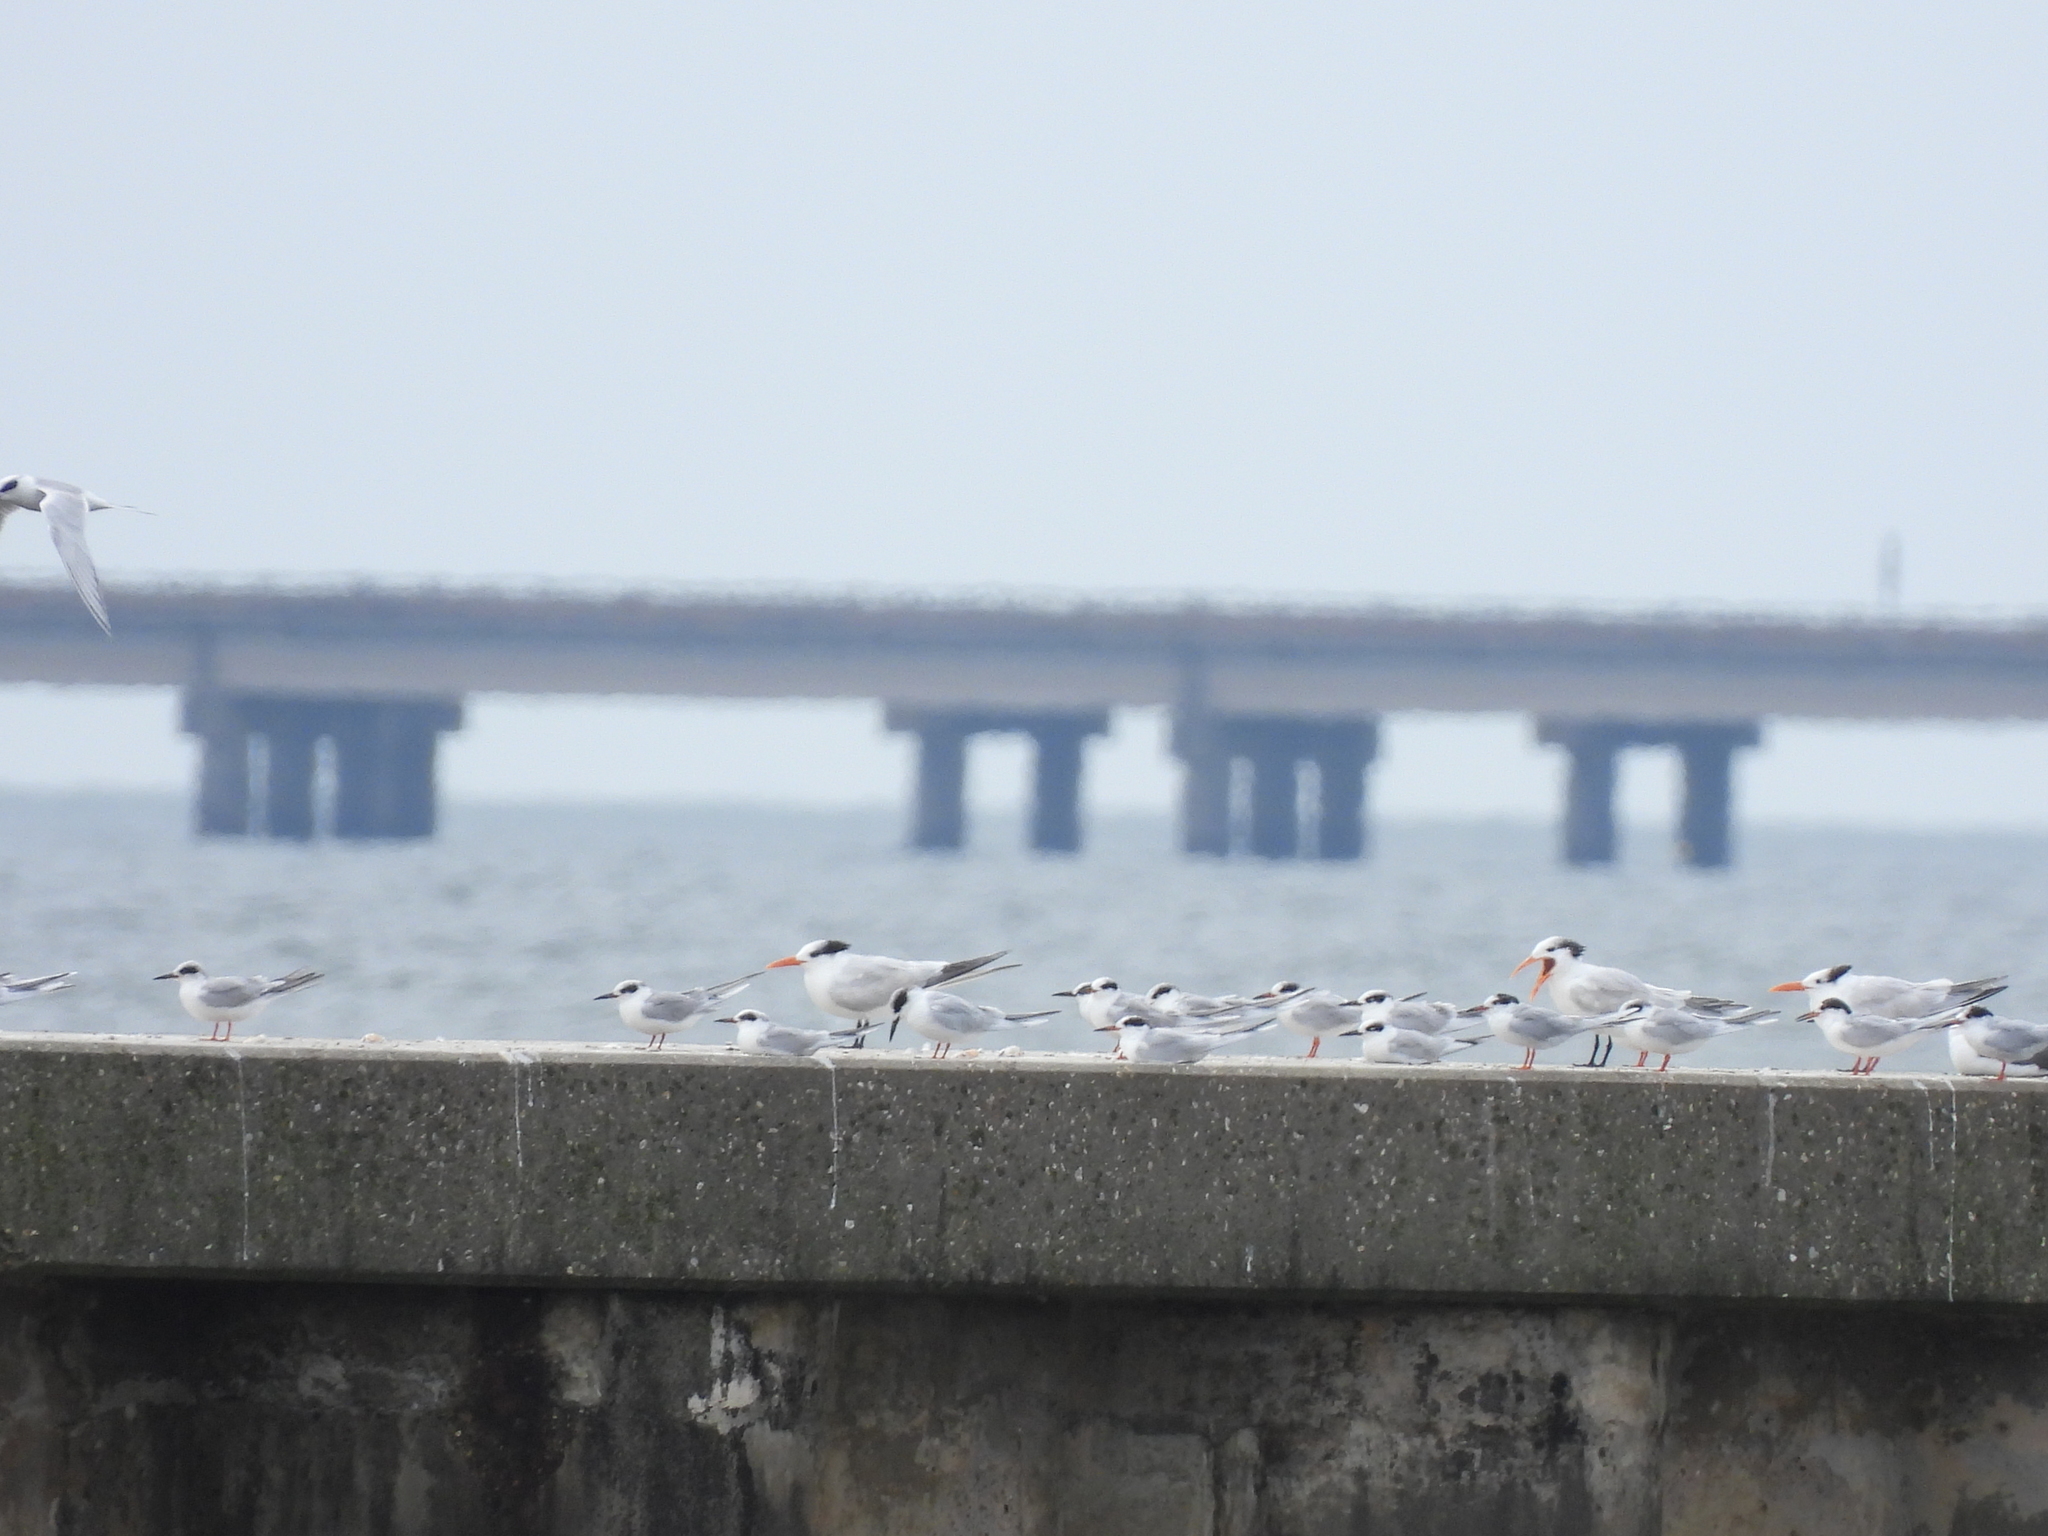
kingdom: Animalia
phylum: Chordata
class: Aves
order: Charadriiformes
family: Laridae
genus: Thalasseus
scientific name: Thalasseus maximus
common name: Royal tern
